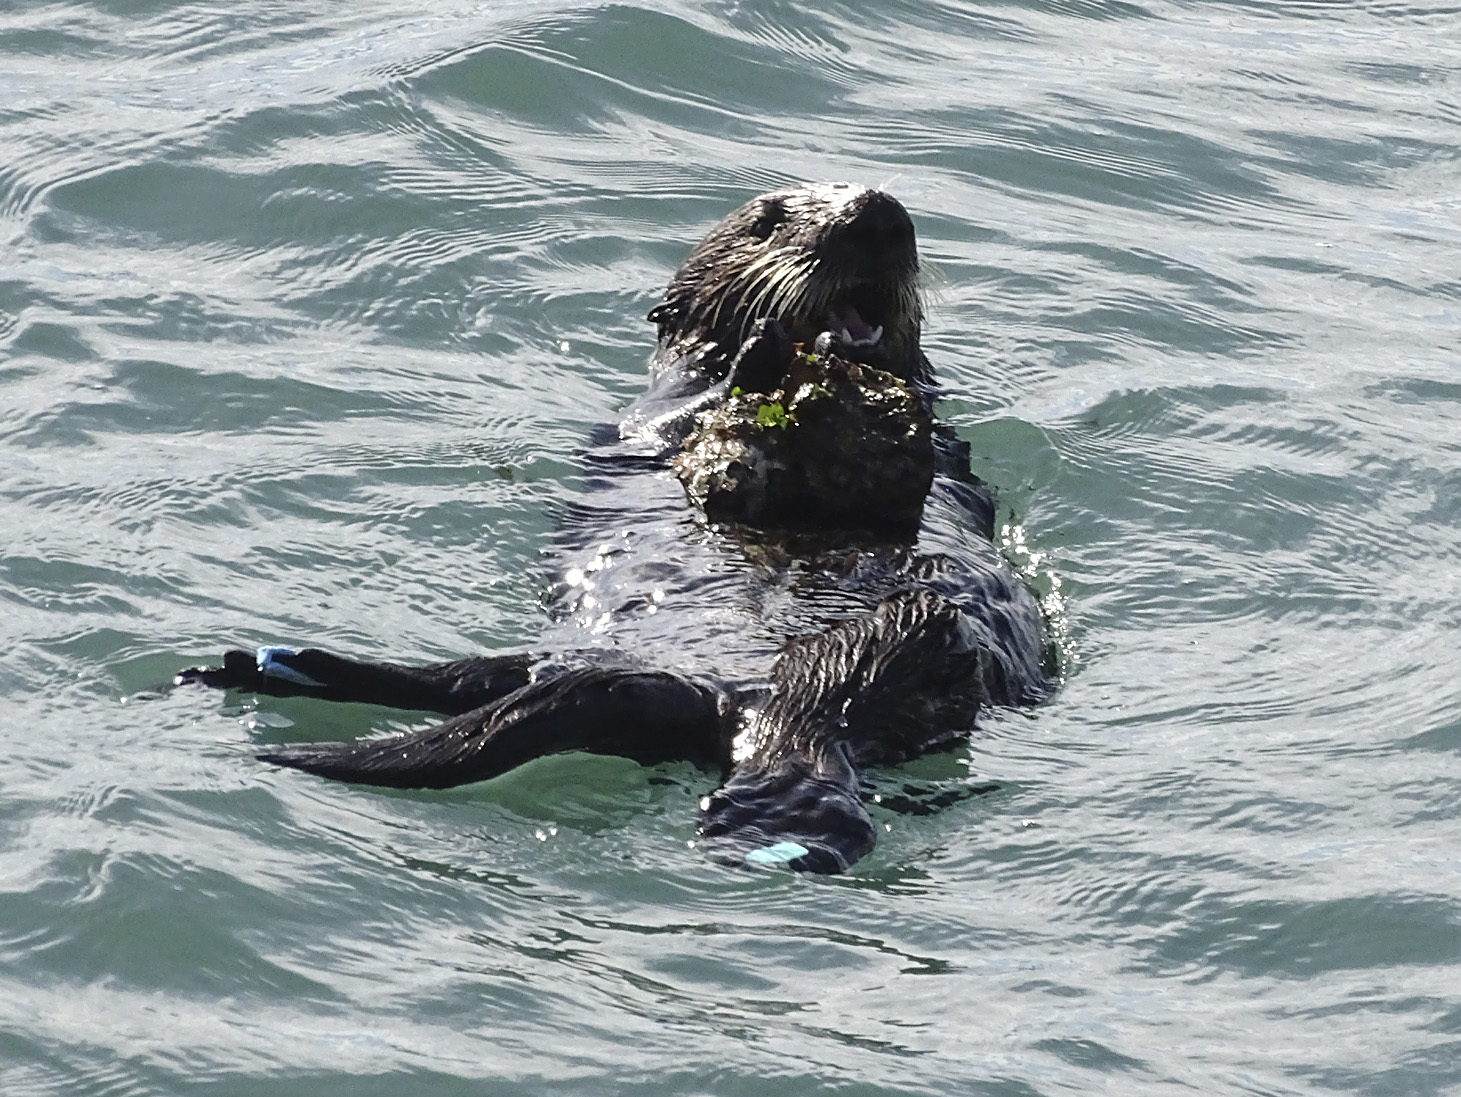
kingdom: Animalia
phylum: Chordata
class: Mammalia
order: Carnivora
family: Mustelidae
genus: Enhydra
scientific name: Enhydra lutris
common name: Sea otter
